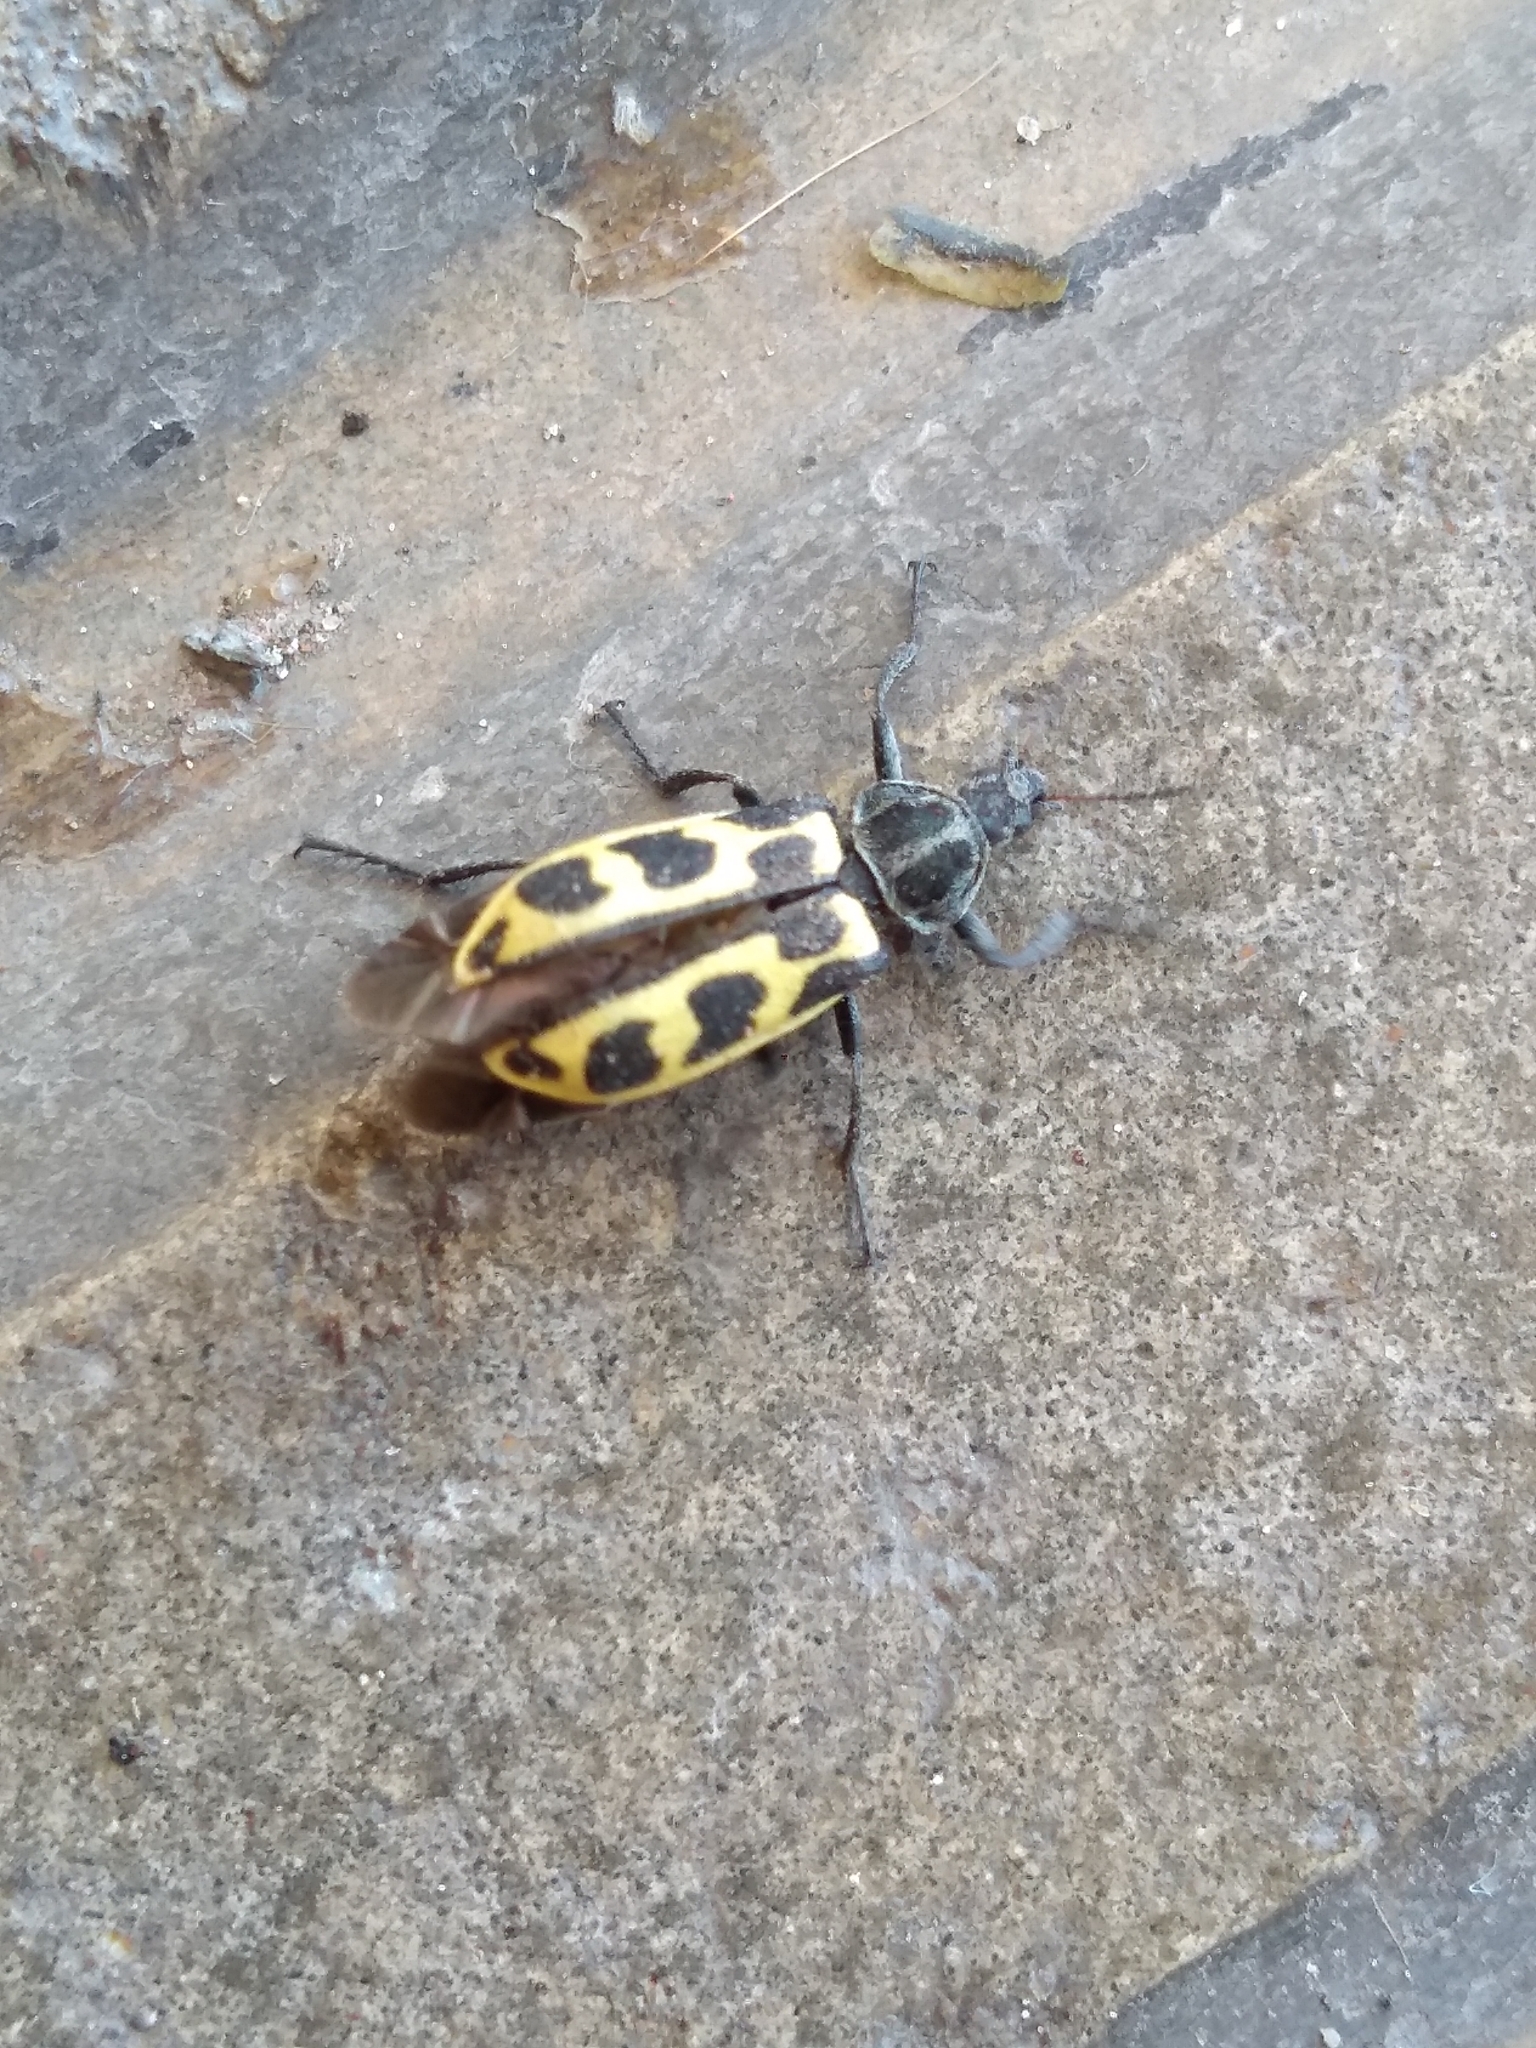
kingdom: Animalia
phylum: Arthropoda
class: Insecta
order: Coleoptera
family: Melyridae
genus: Astylus
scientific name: Astylus atromaculatus
